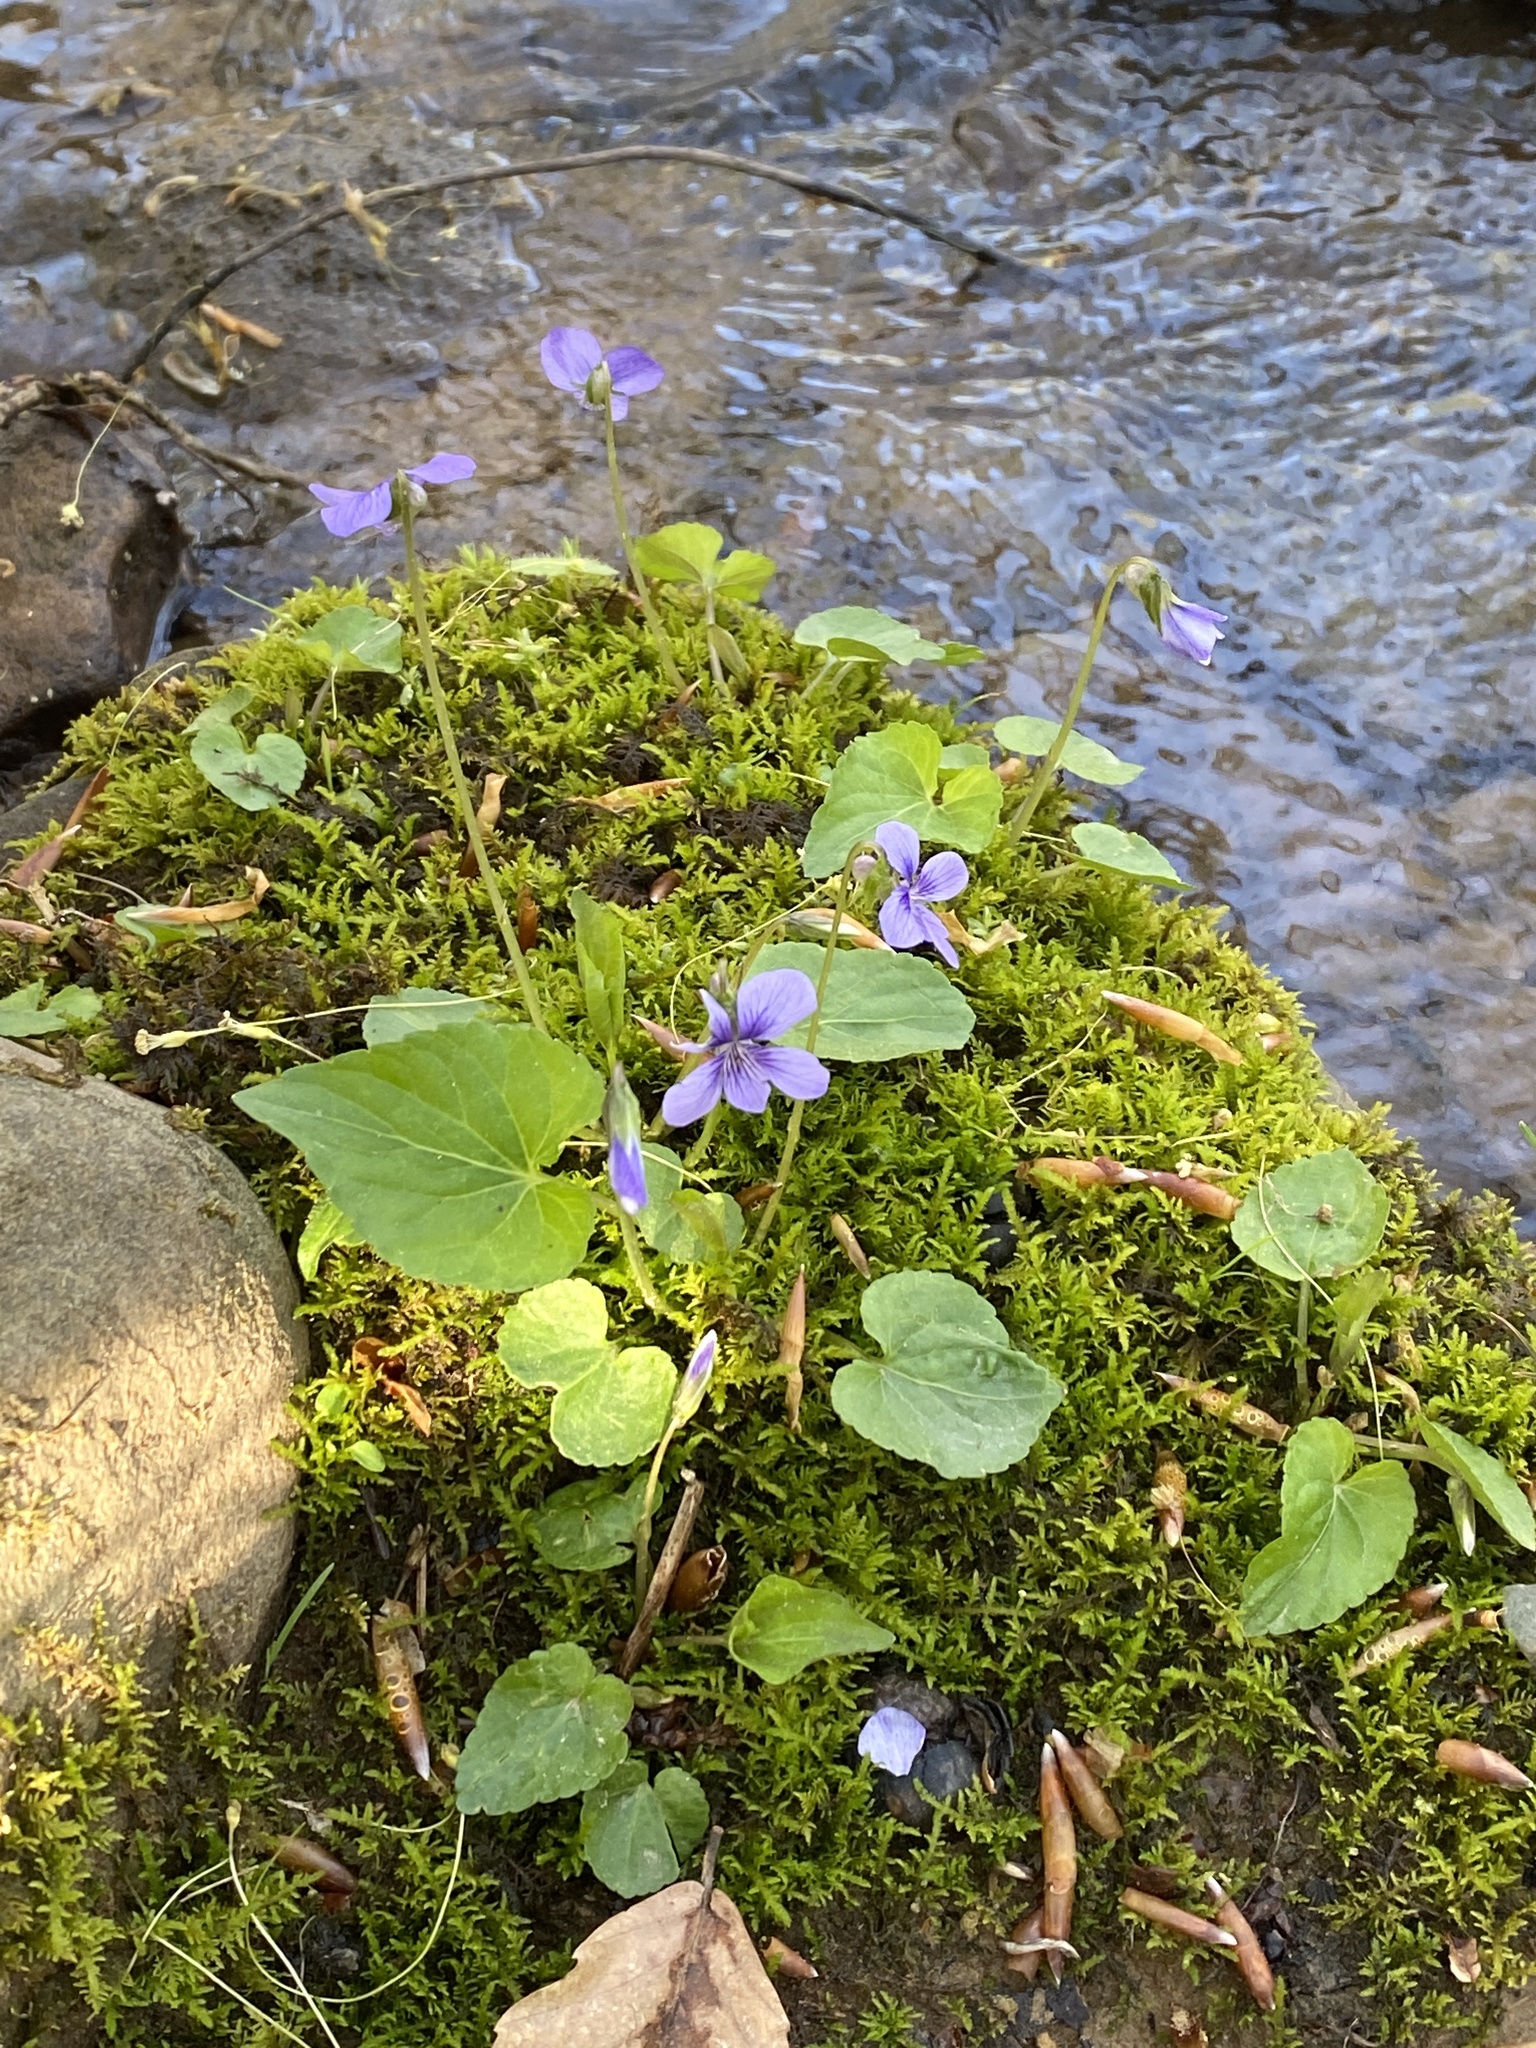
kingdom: Plantae
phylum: Tracheophyta
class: Magnoliopsida
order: Malpighiales
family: Violaceae
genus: Viola
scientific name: Viola cucullata
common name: Marsh blue violet
